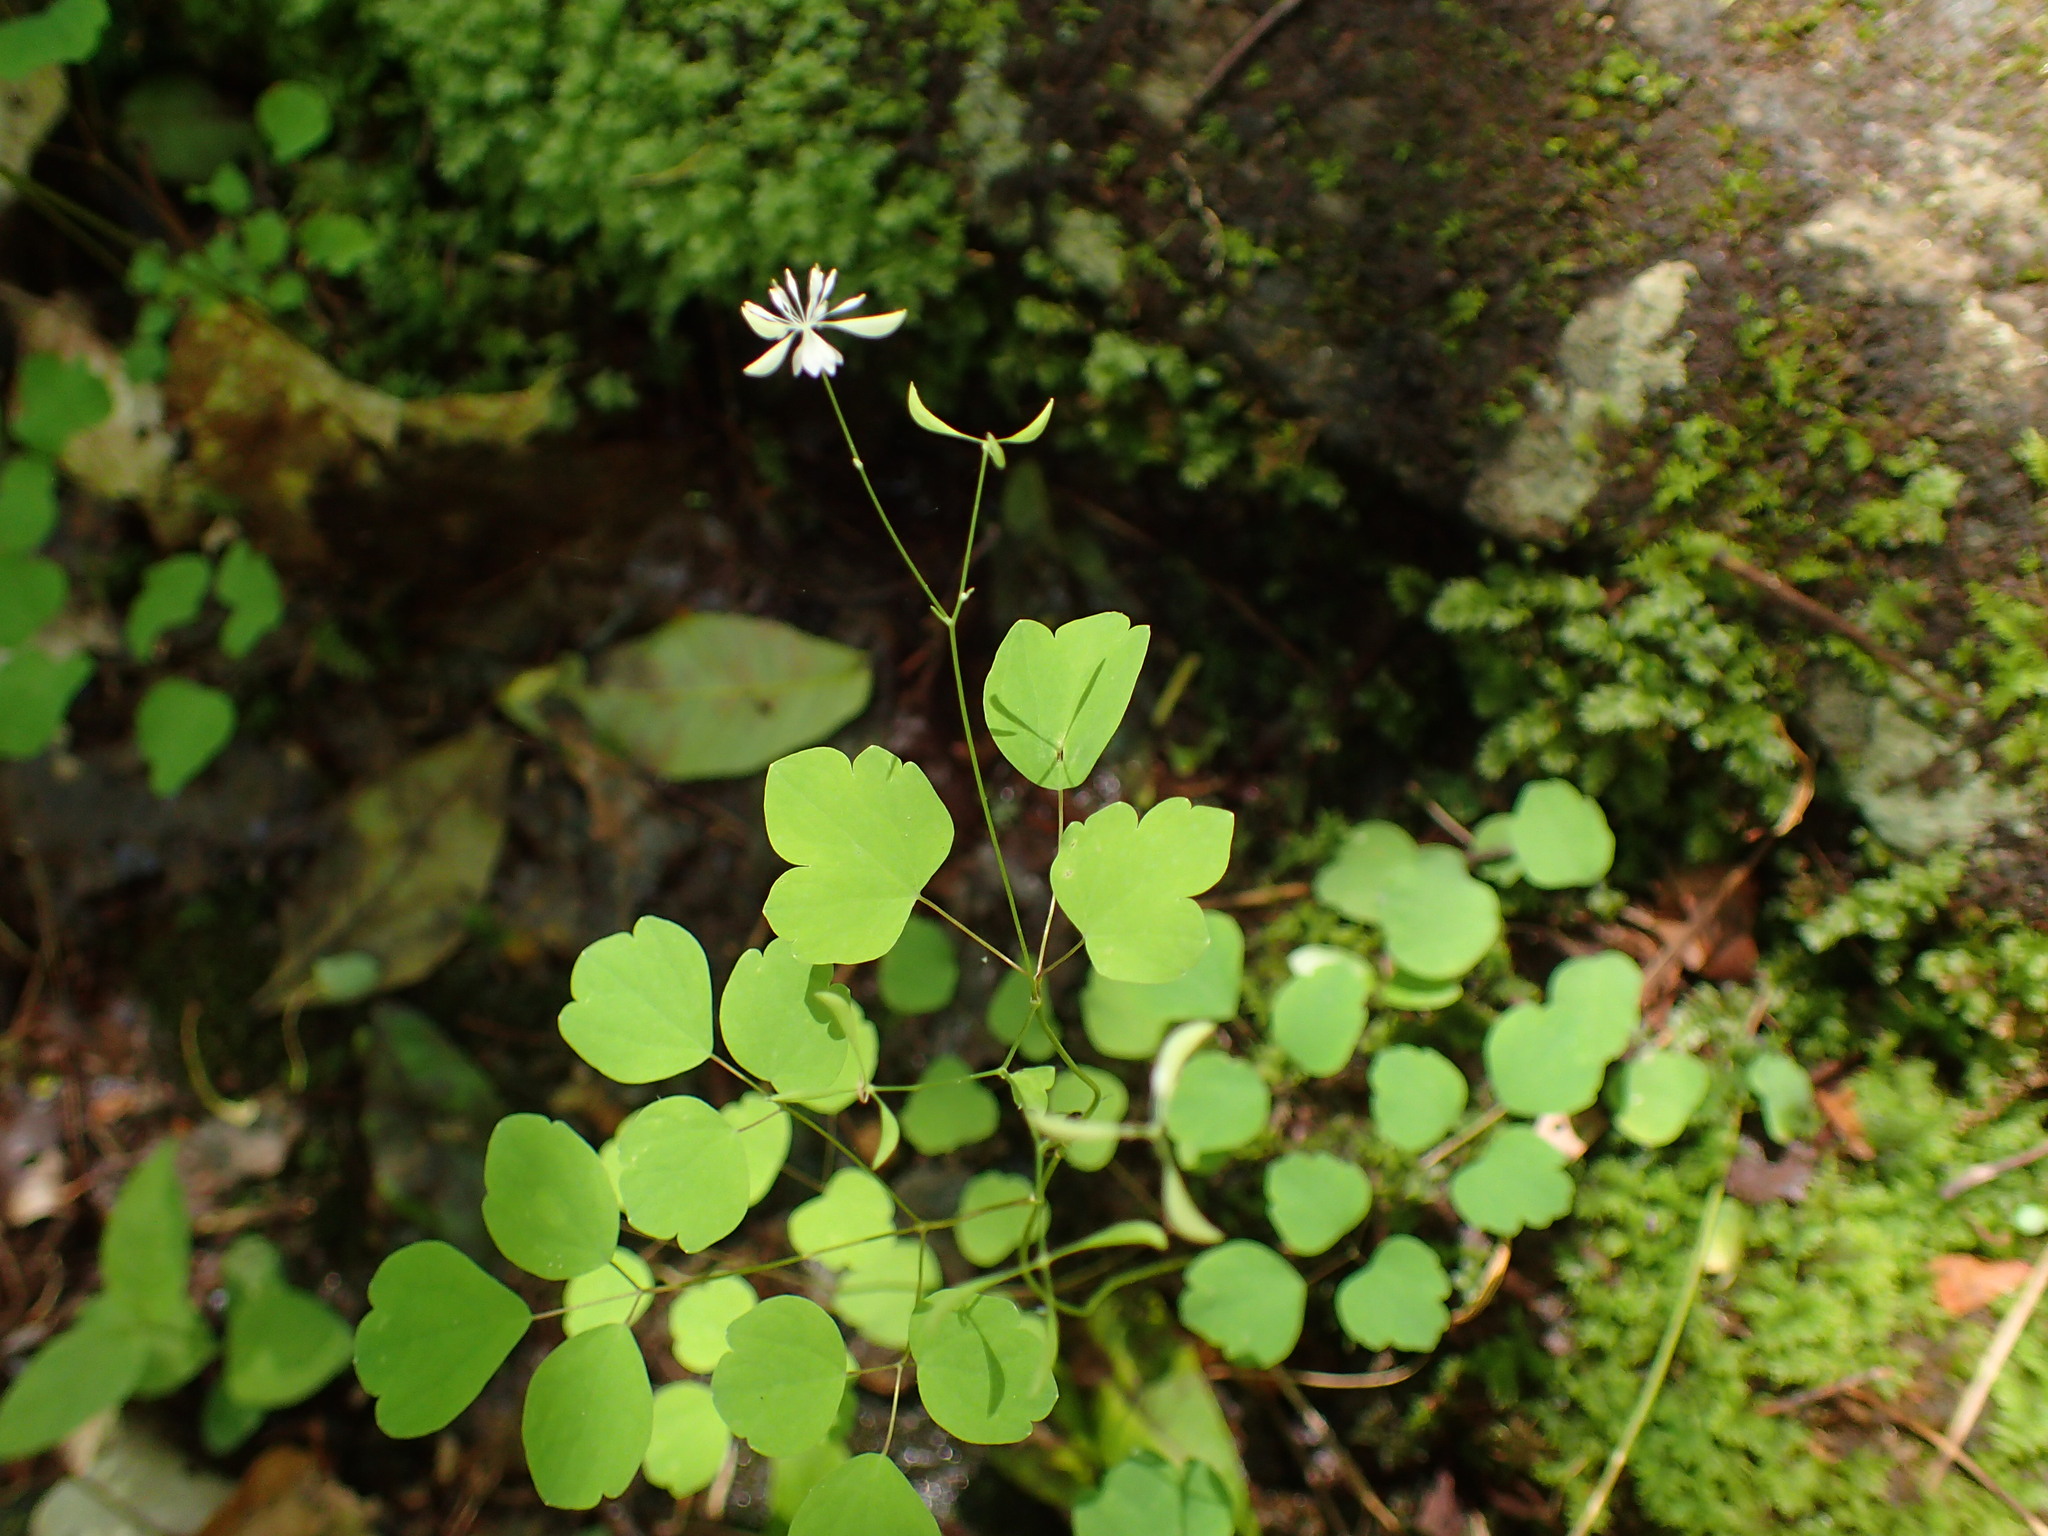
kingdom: Plantae
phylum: Tracheophyta
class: Magnoliopsida
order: Ranunculales
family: Ranunculaceae
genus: Thalictrum
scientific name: Thalictrum clavatum
